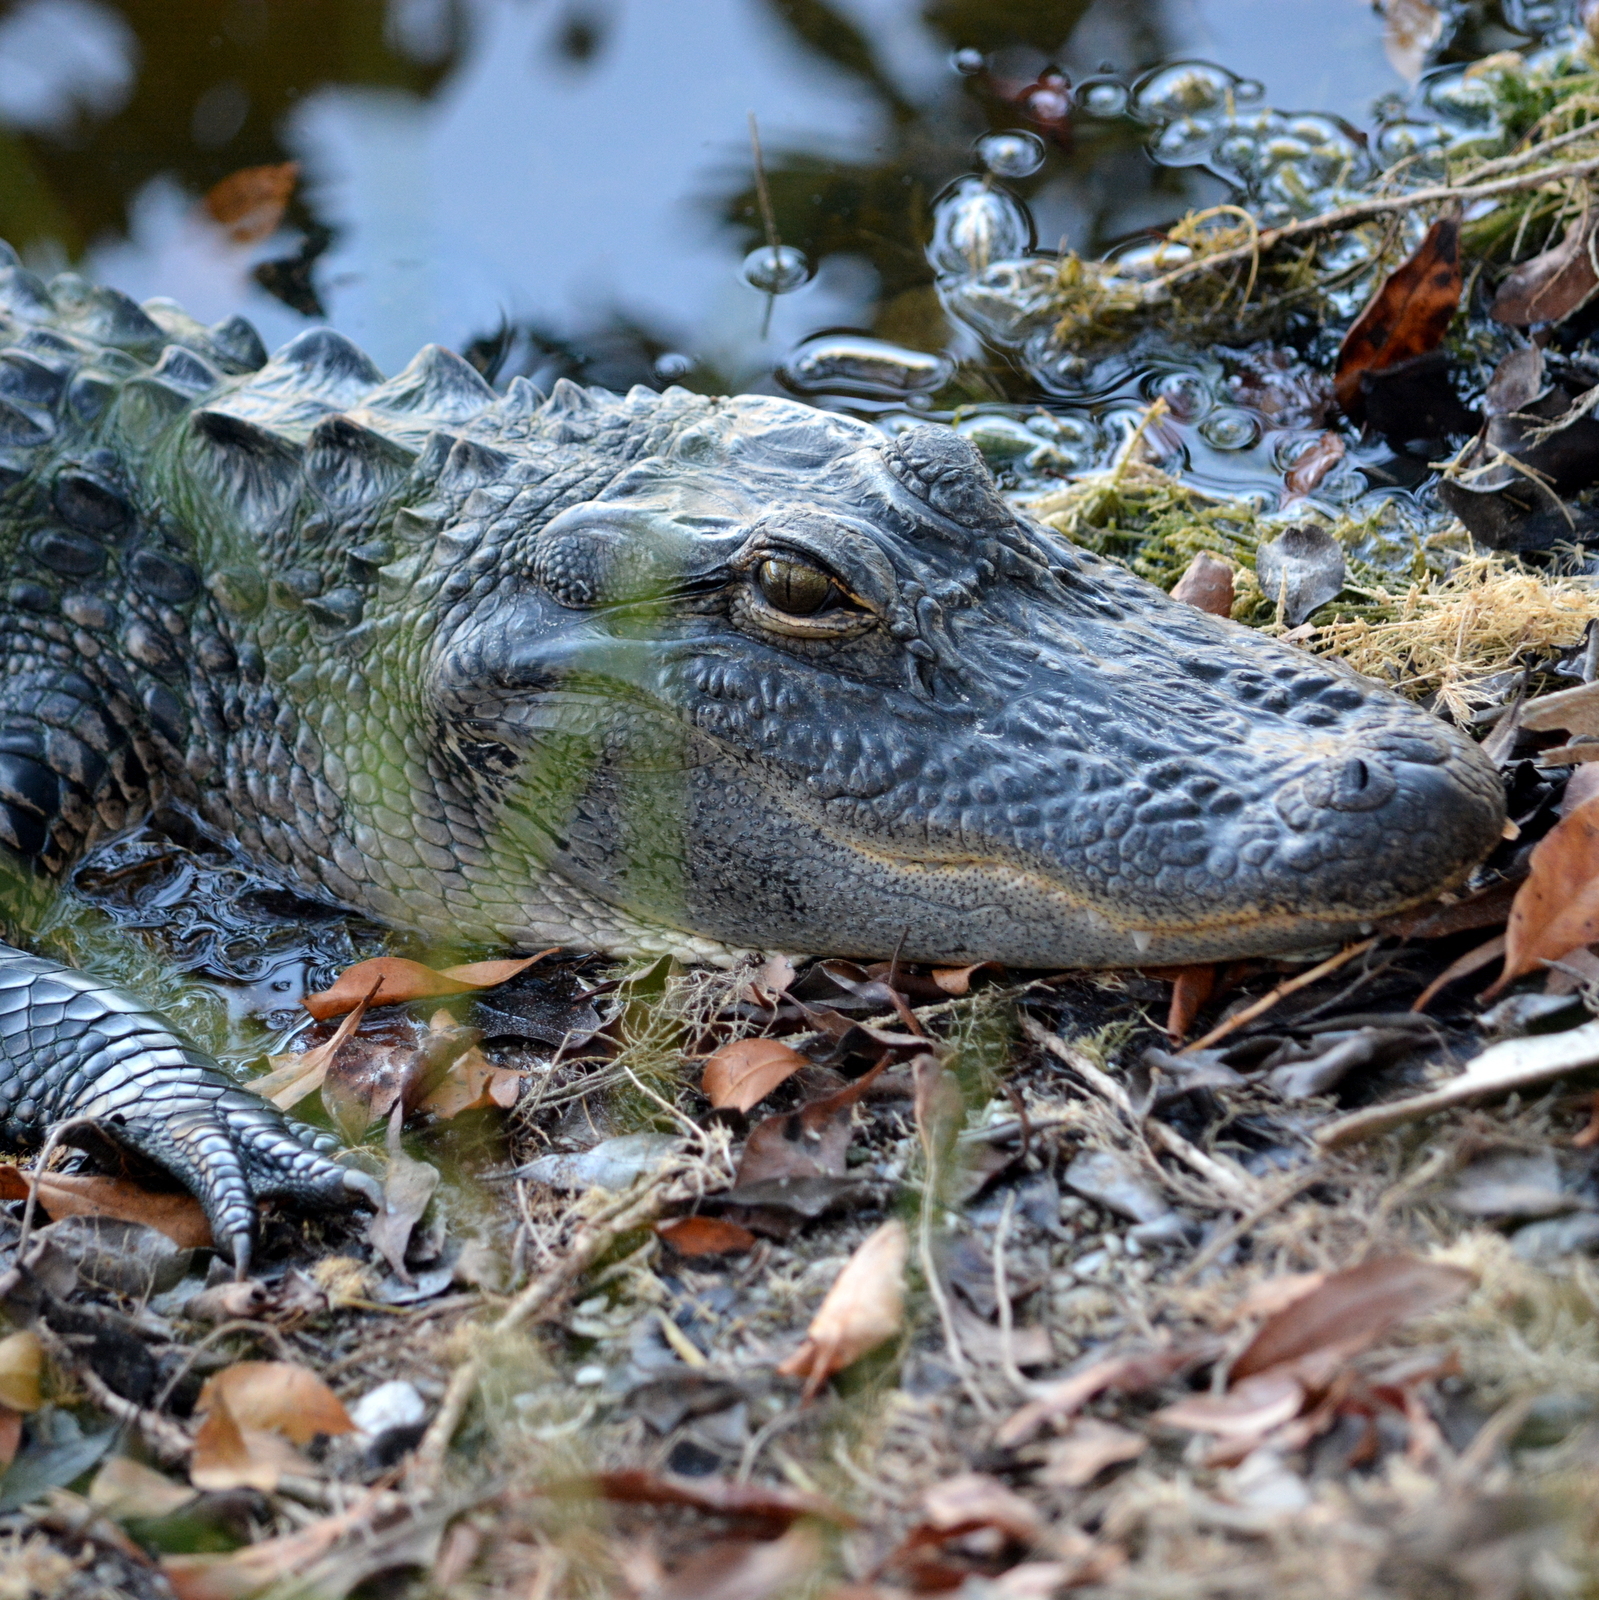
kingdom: Animalia
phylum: Chordata
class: Crocodylia
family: Alligatoridae
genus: Alligator
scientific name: Alligator mississippiensis
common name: American alligator
